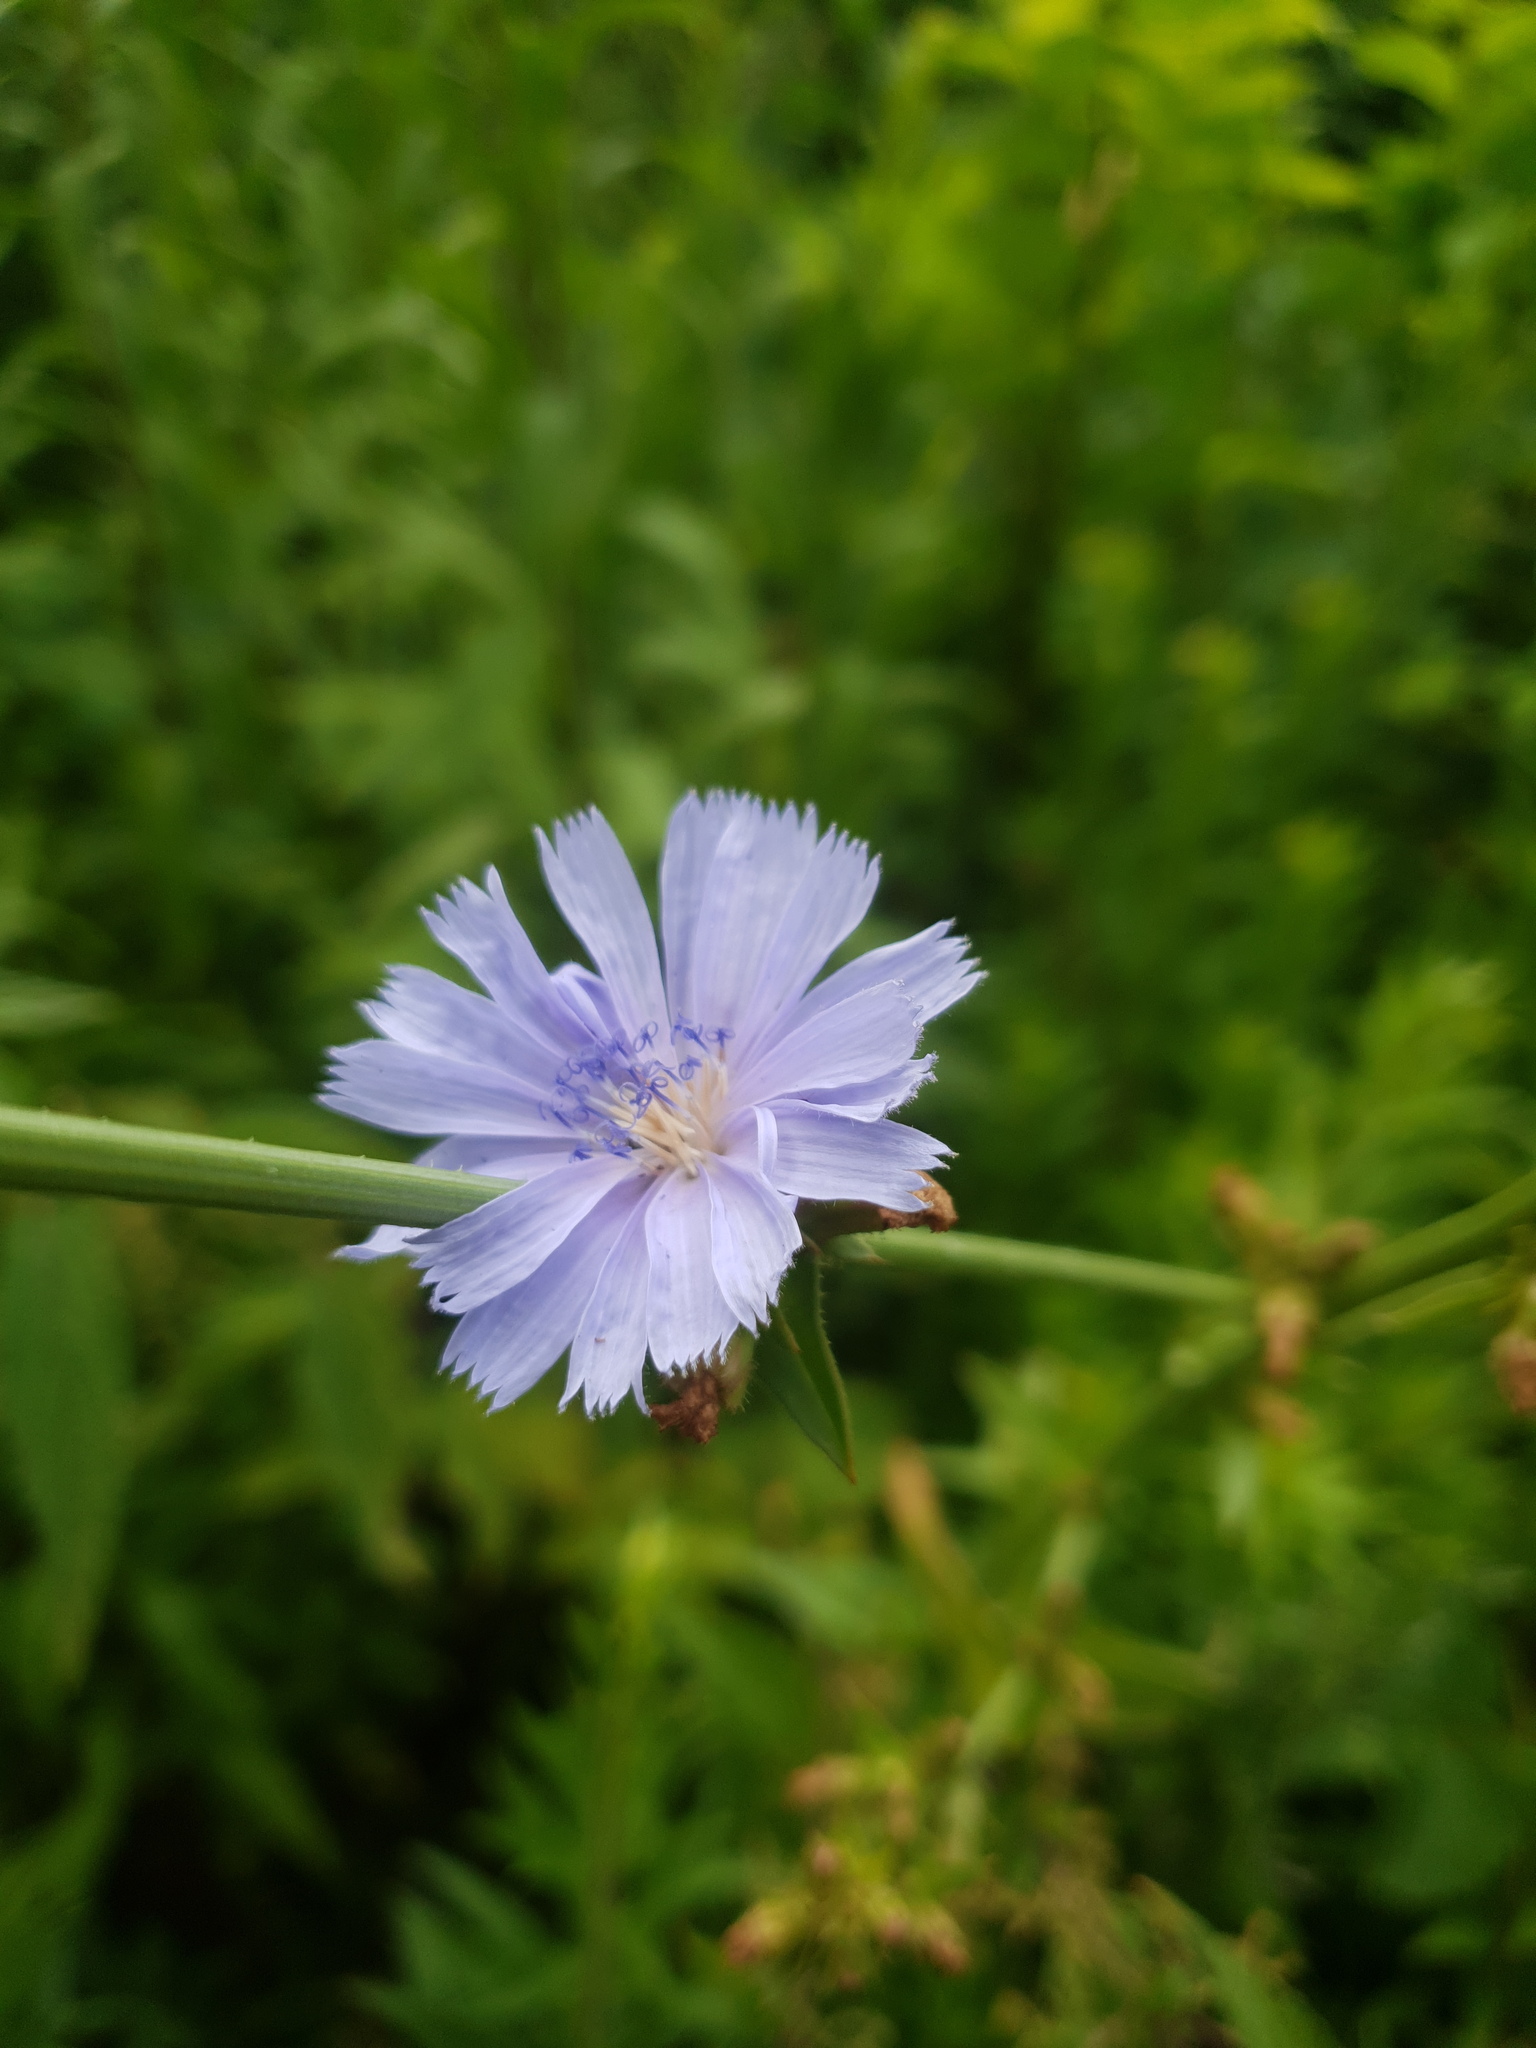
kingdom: Plantae
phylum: Tracheophyta
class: Magnoliopsida
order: Asterales
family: Asteraceae
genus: Cichorium
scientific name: Cichorium intybus
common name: Chicory
